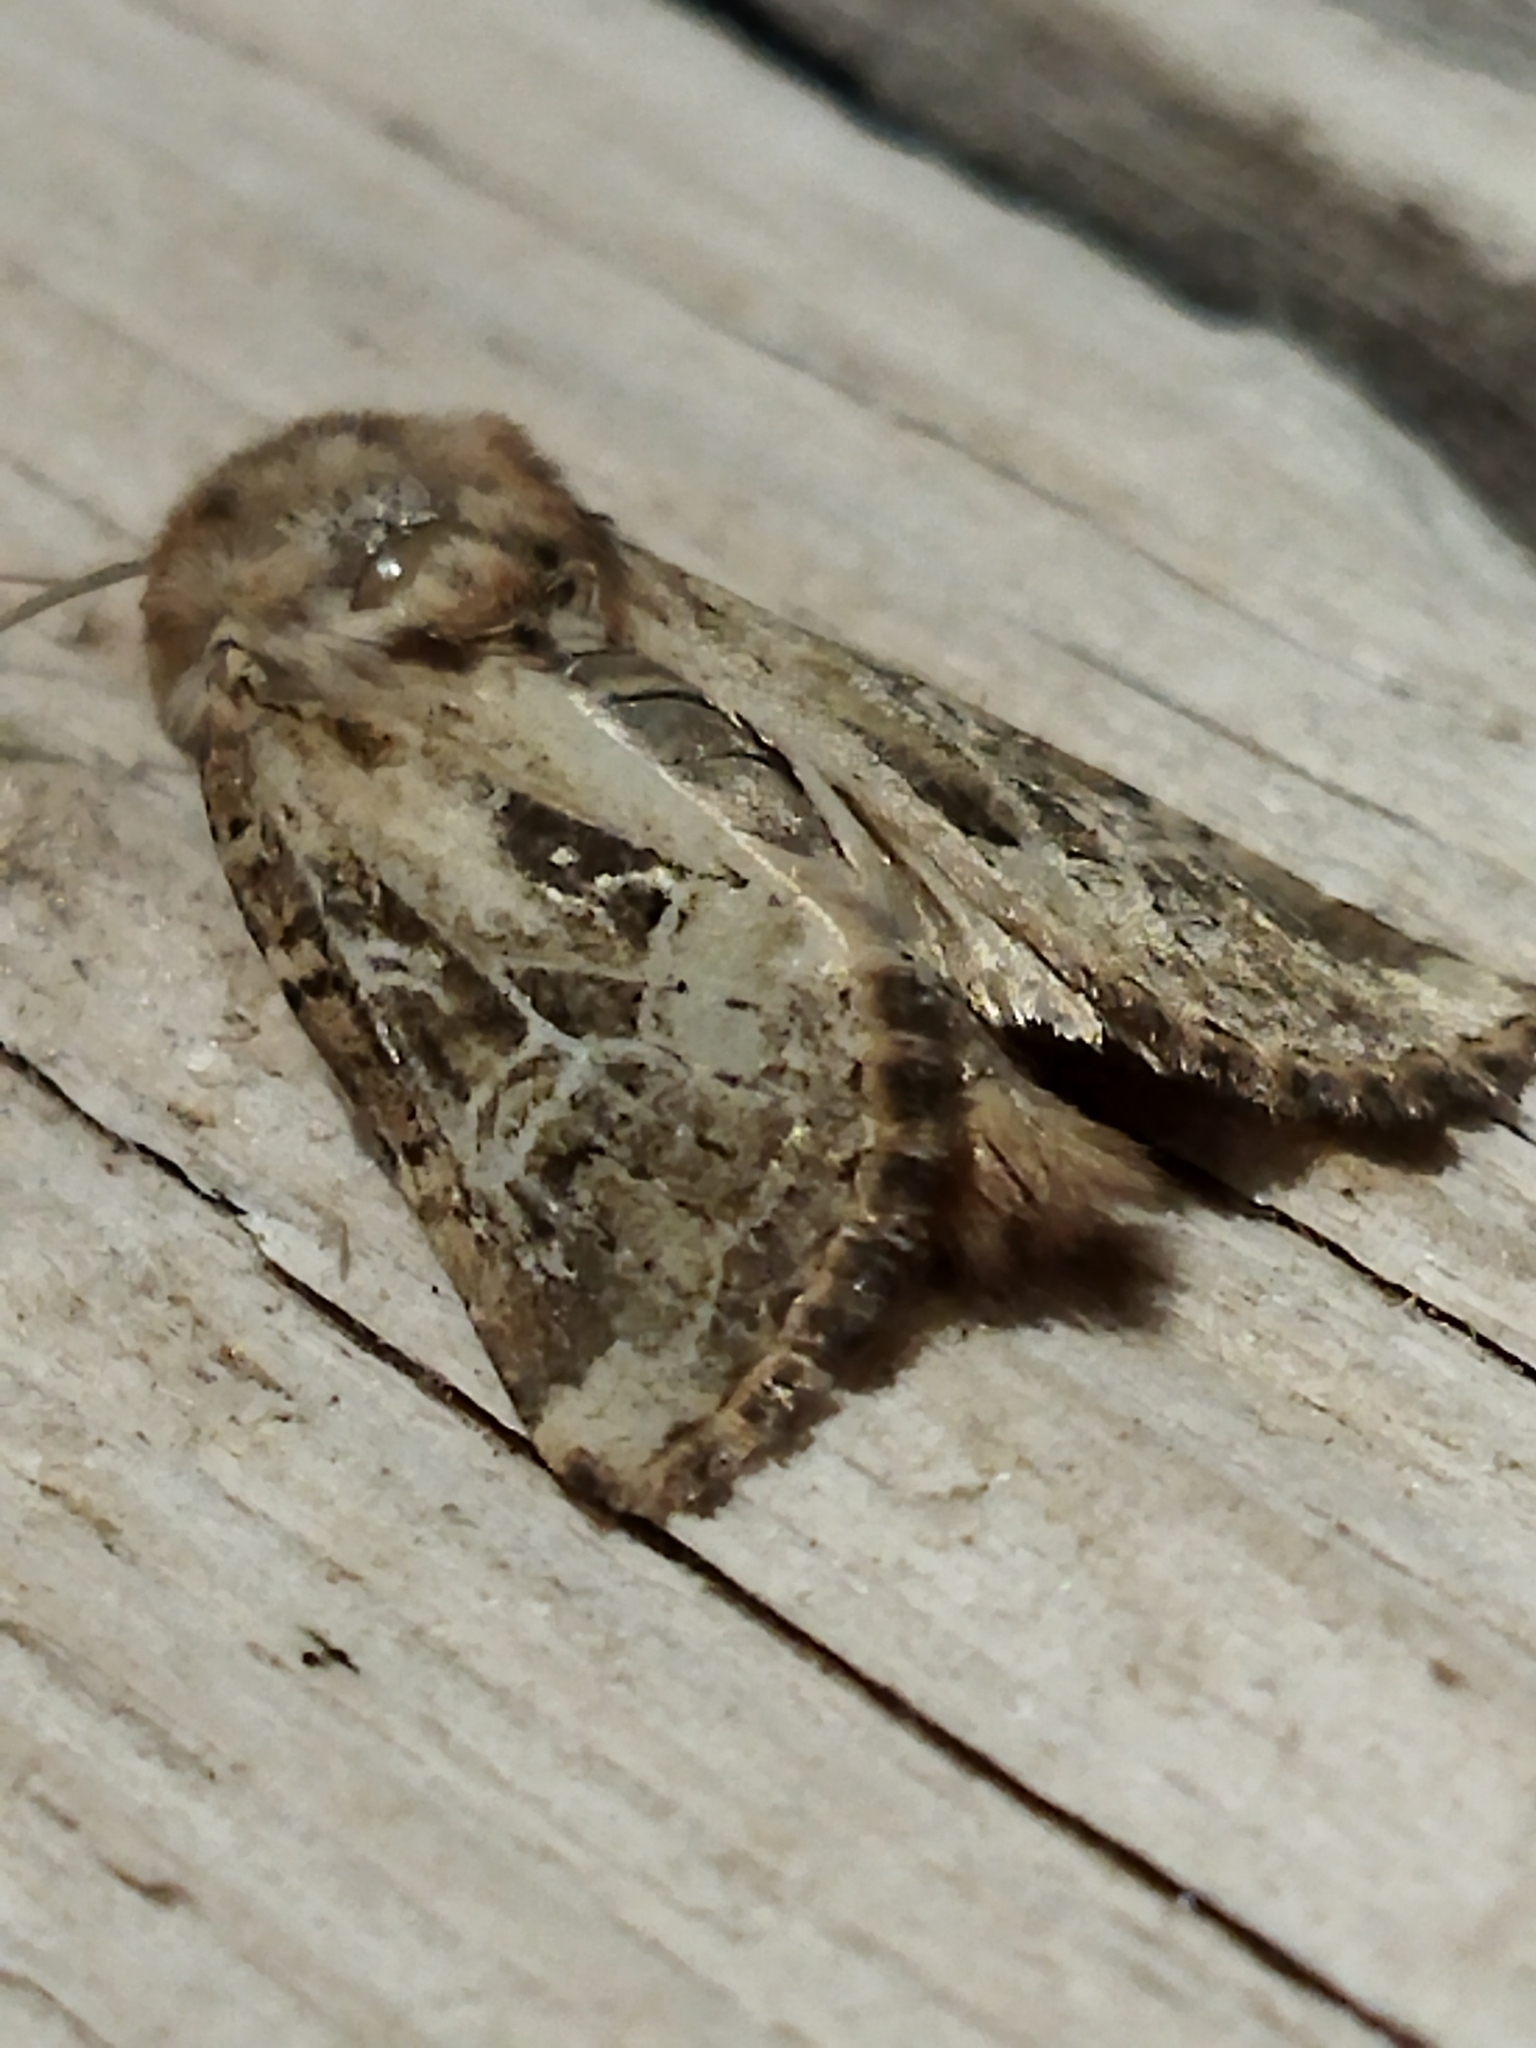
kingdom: Animalia
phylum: Arthropoda
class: Insecta
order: Lepidoptera
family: Noctuidae
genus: Luperina
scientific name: Luperina dumerilii
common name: Dumeril's rustic
